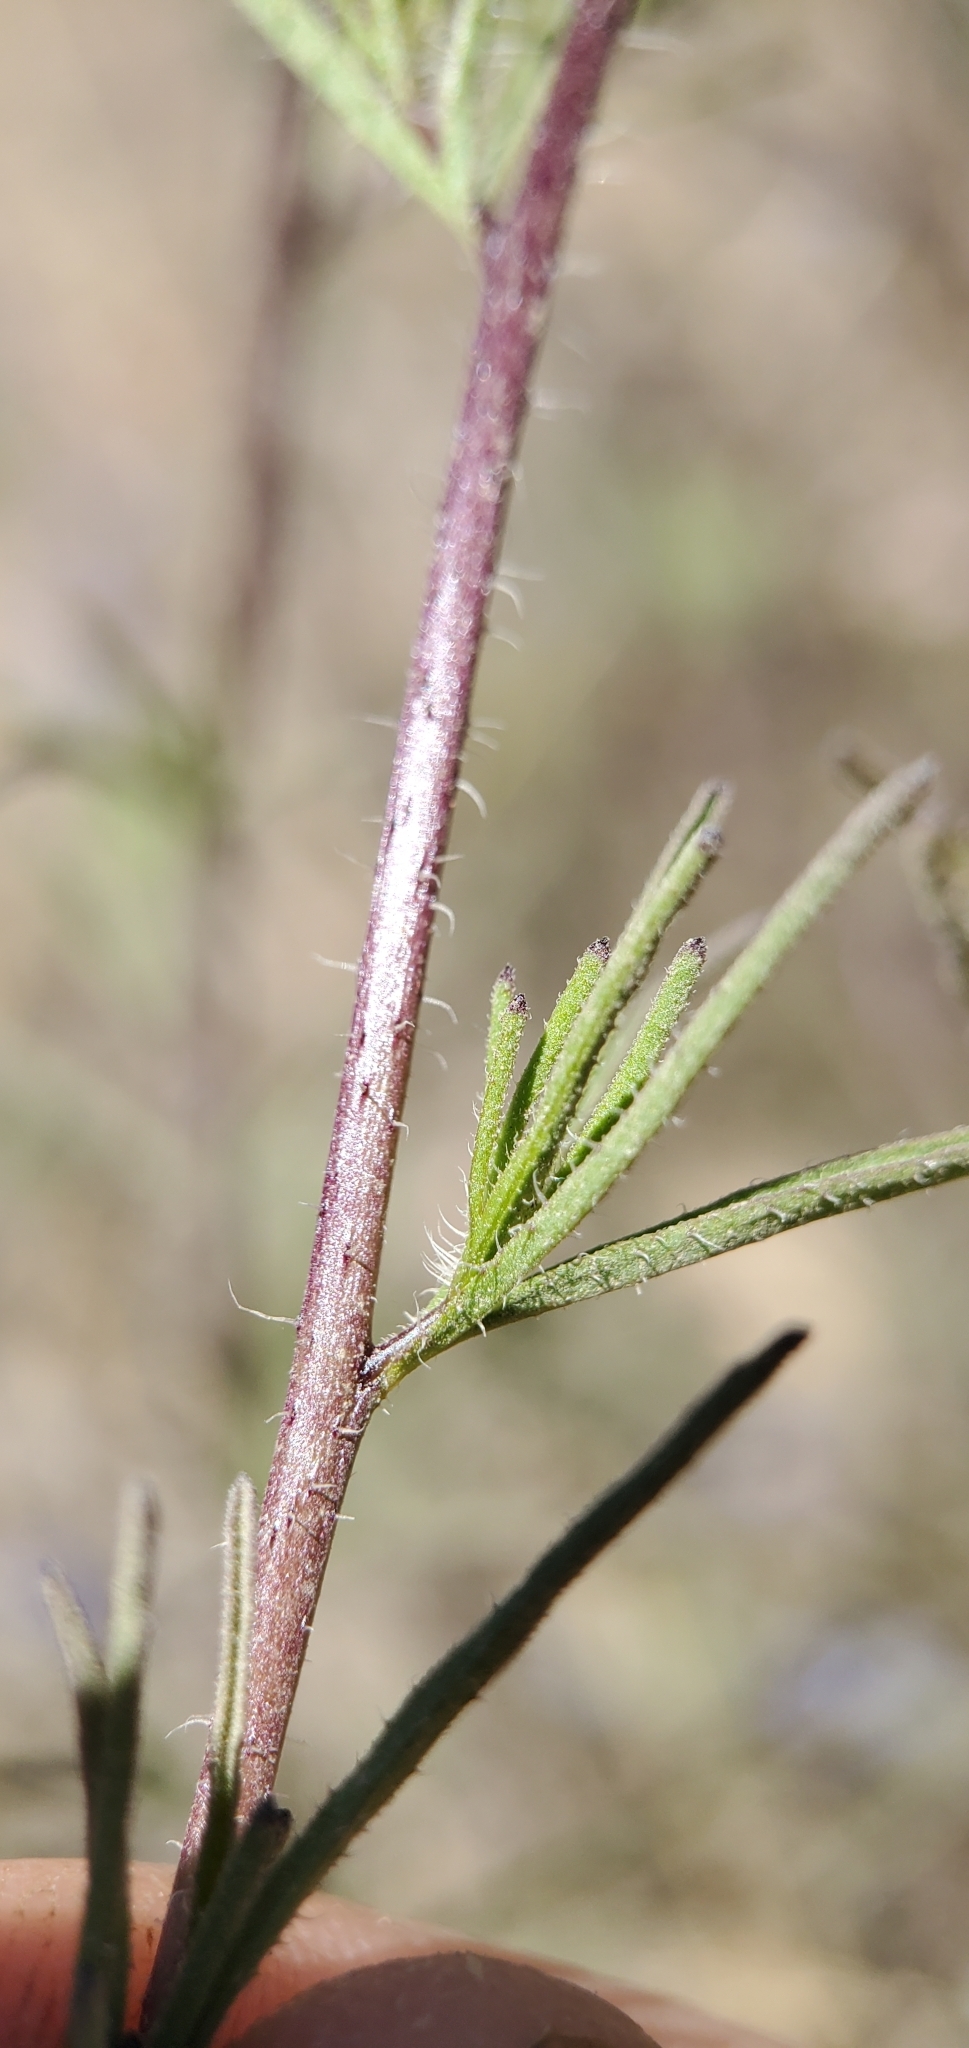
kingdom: Plantae
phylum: Tracheophyta
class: Magnoliopsida
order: Lamiales
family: Orobanchaceae
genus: Cordylanthus
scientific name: Cordylanthus rigidus
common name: Stiff-branch bird's-beak
